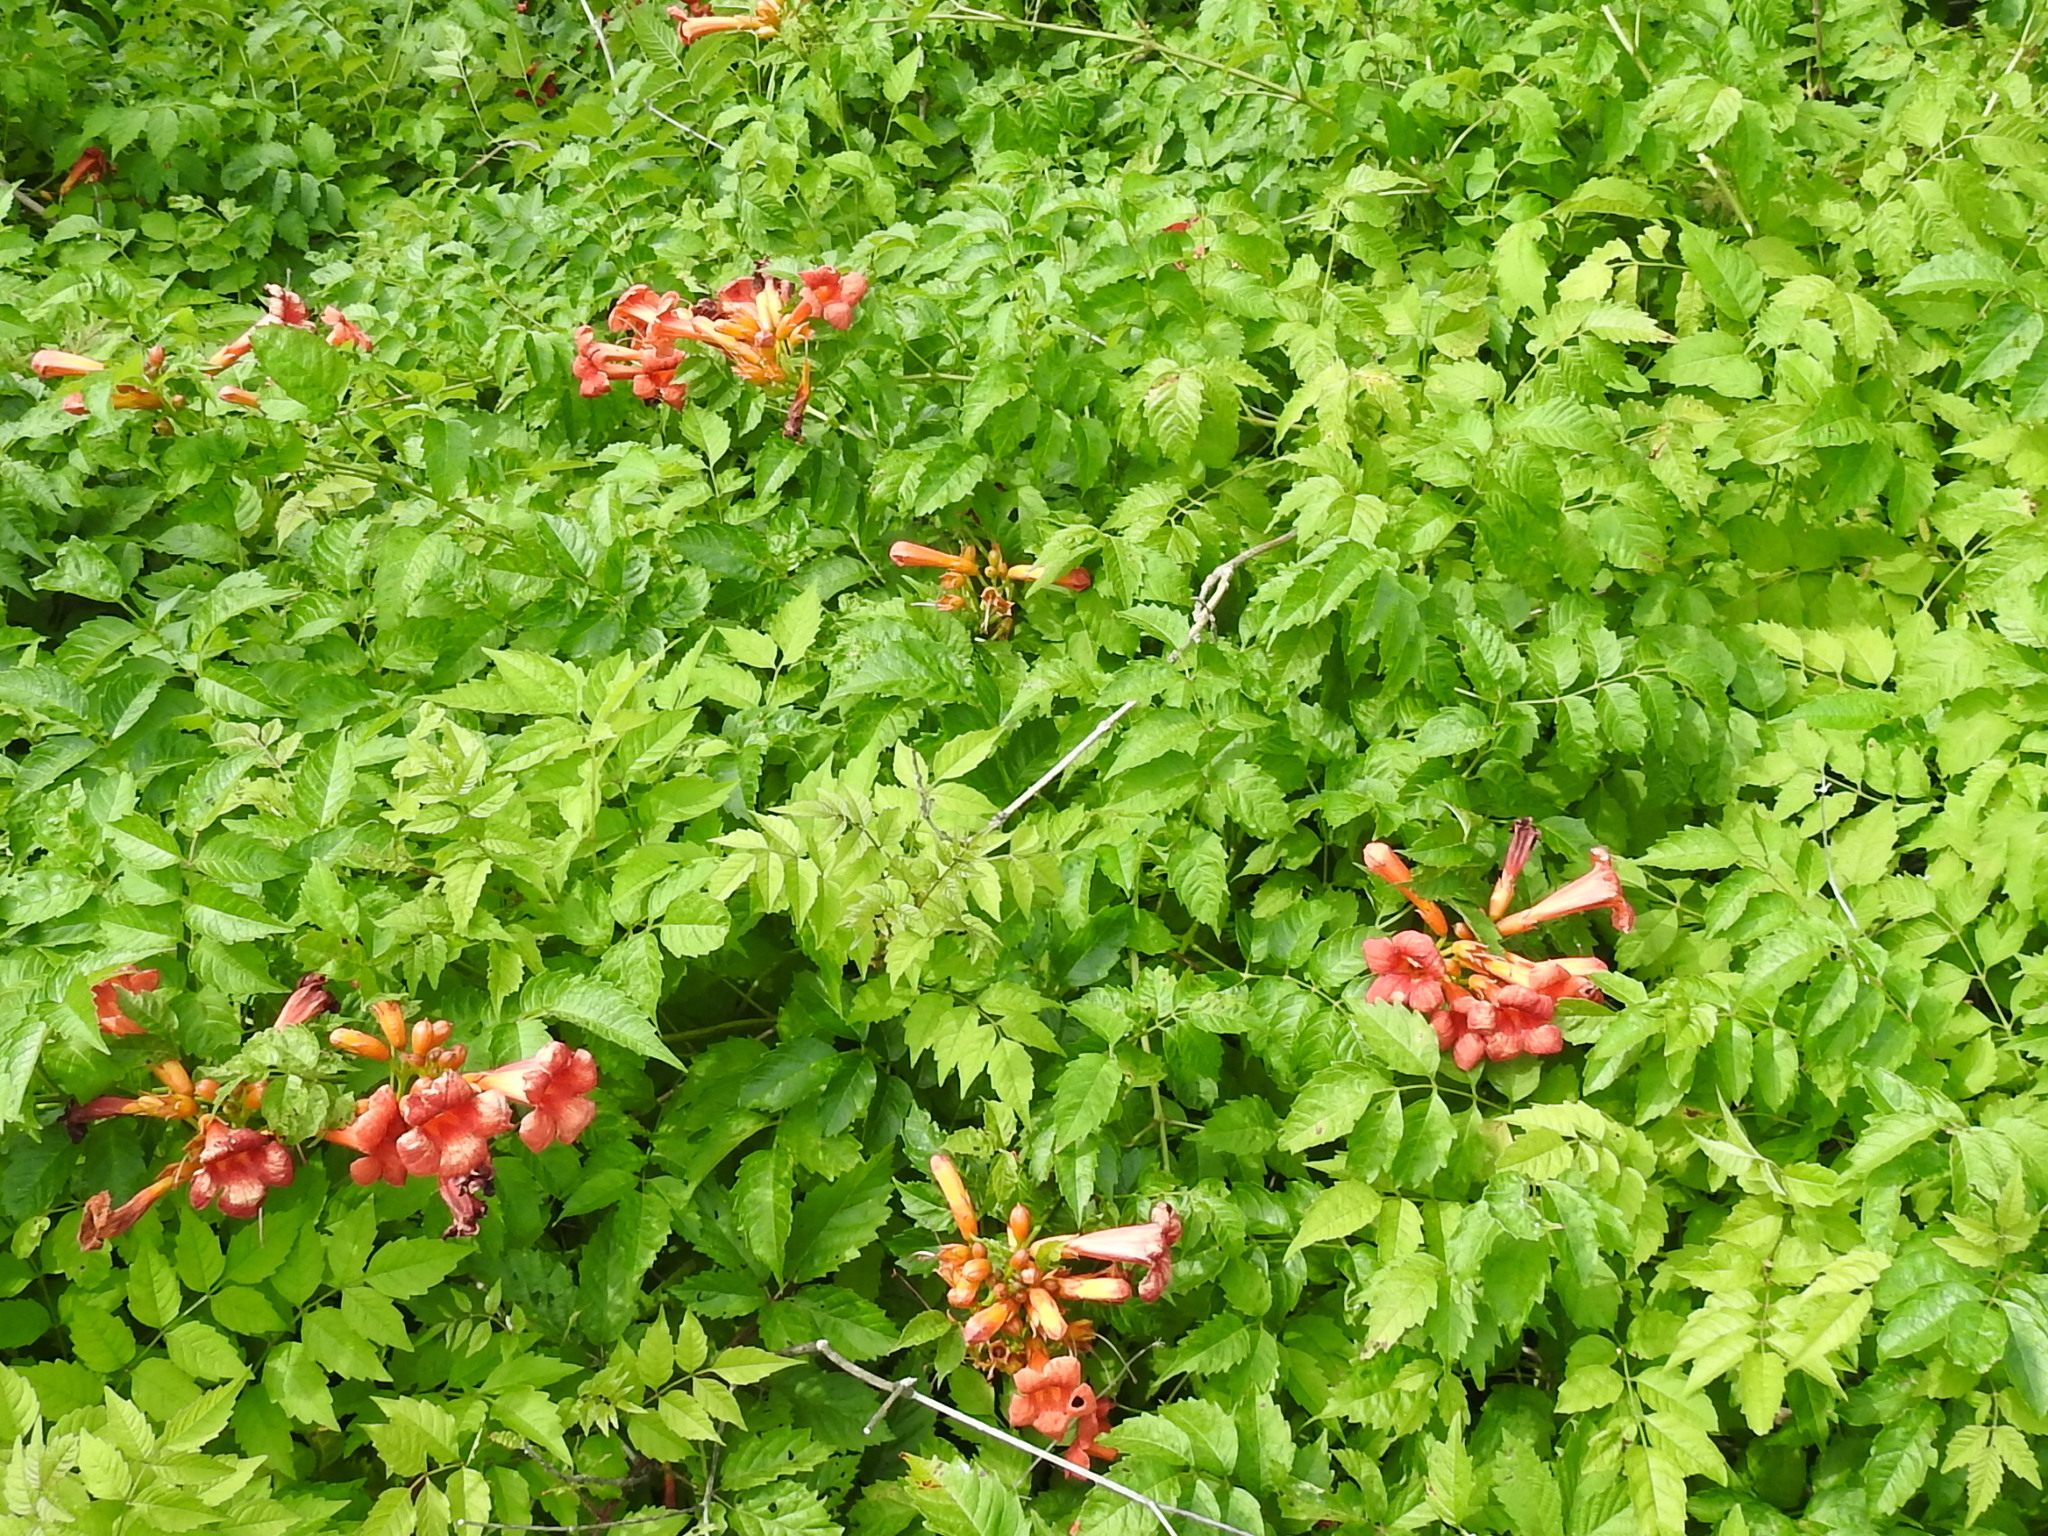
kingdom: Plantae
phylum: Tracheophyta
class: Magnoliopsida
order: Lamiales
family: Bignoniaceae
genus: Campsis
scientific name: Campsis radicans
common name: Trumpet-creeper
